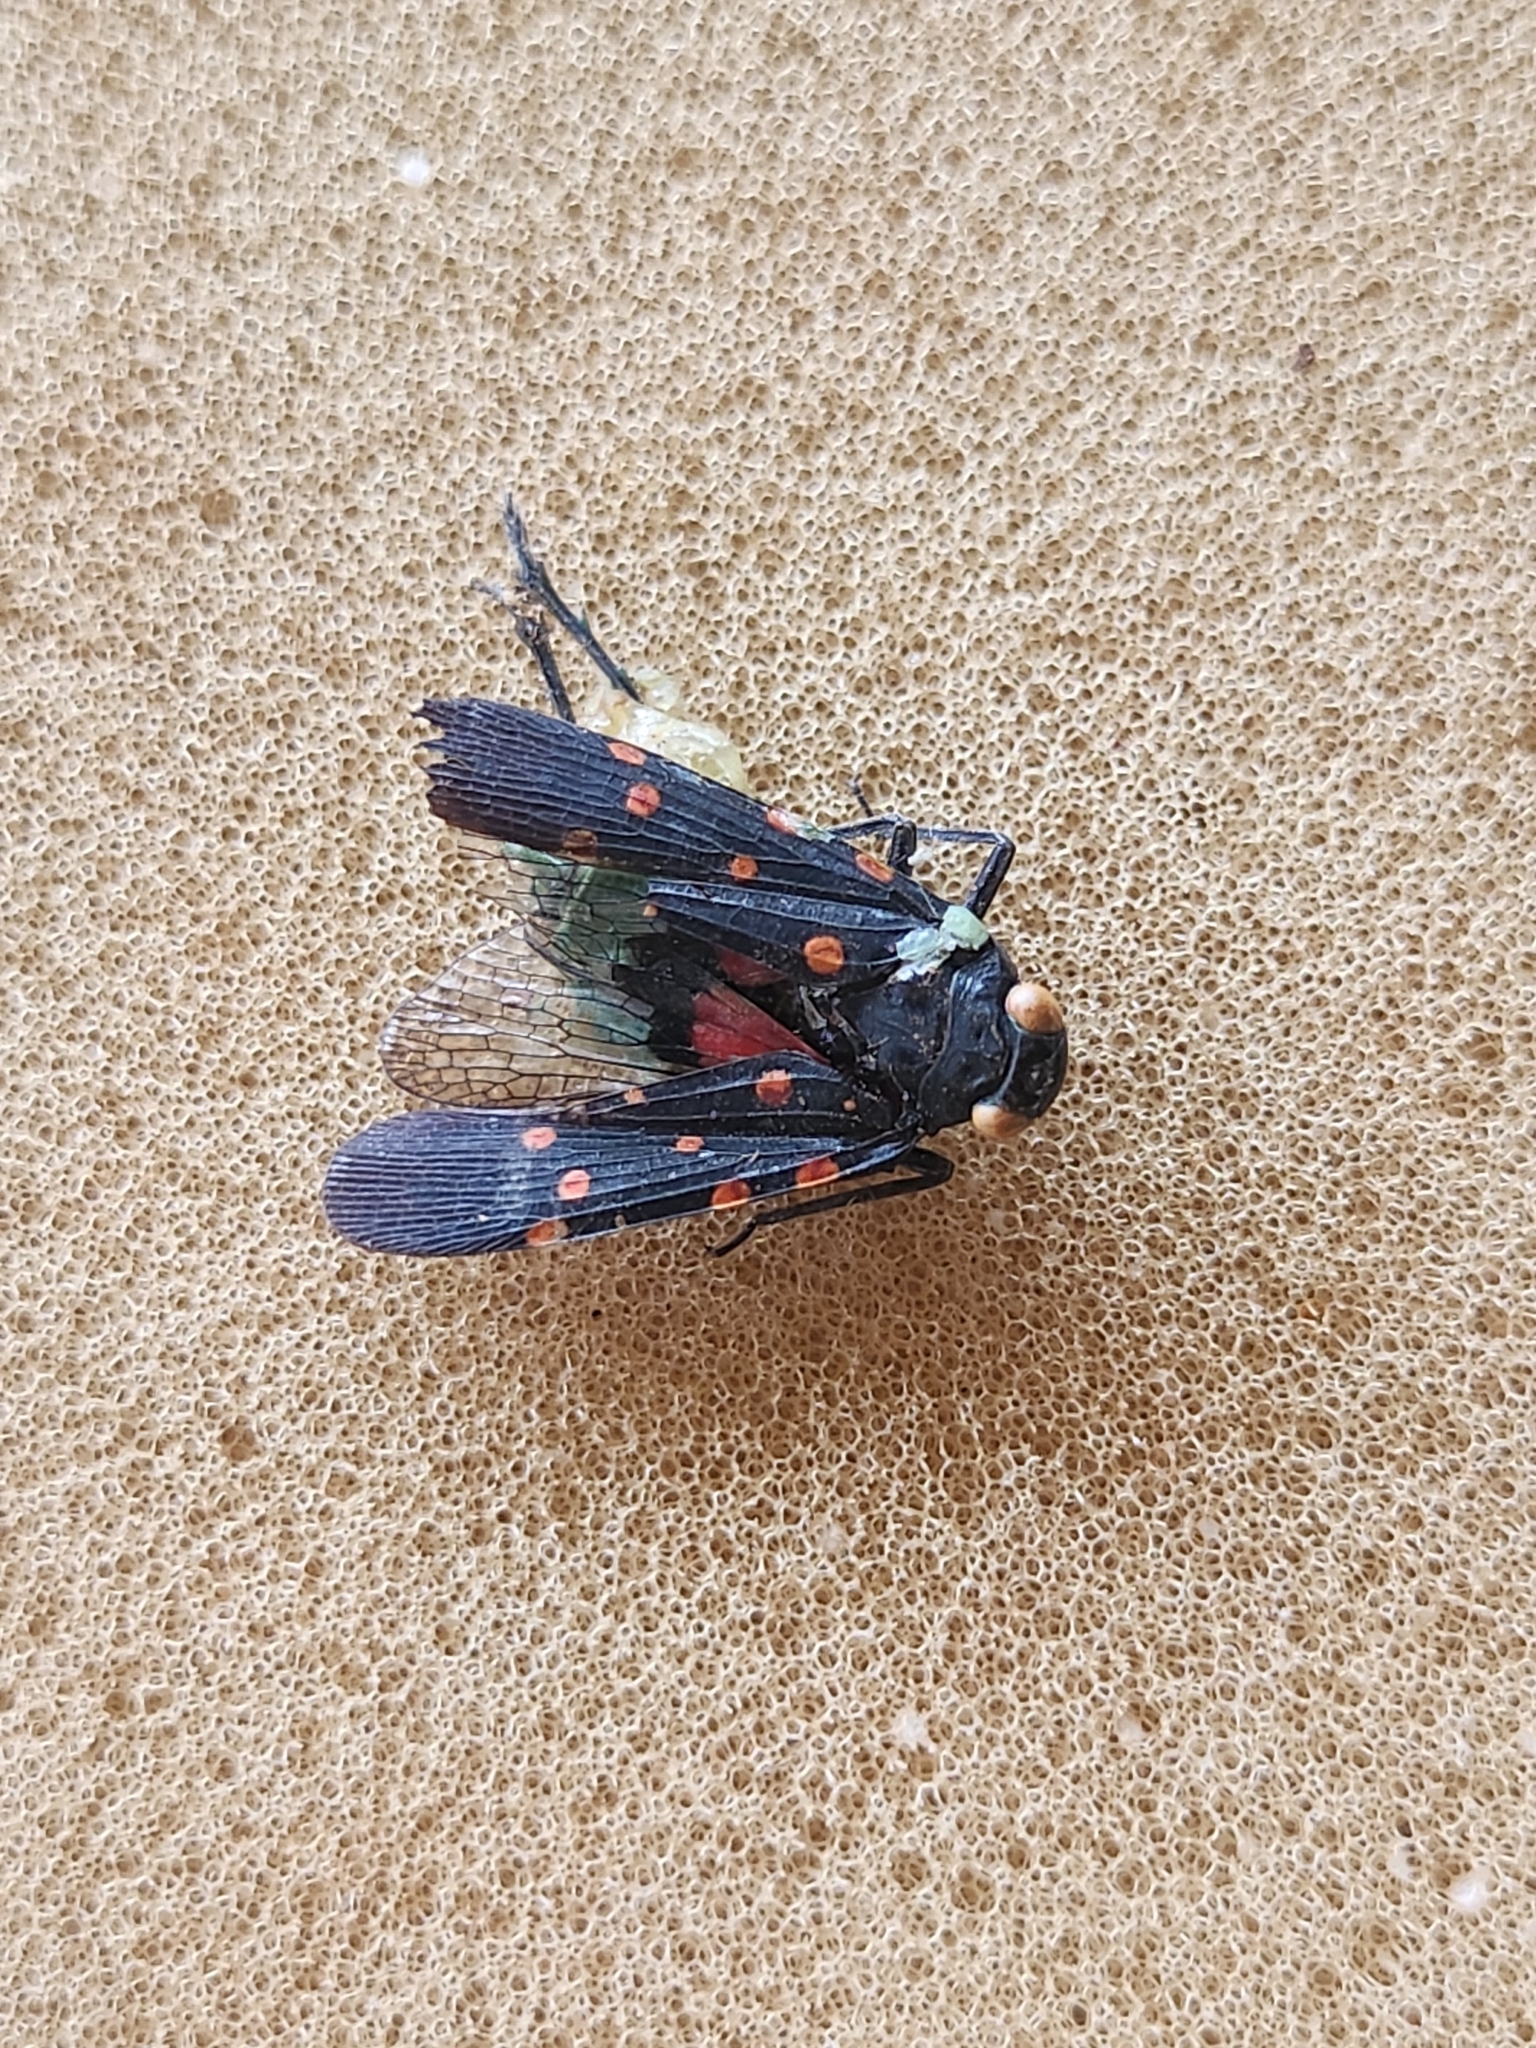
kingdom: Animalia
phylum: Arthropoda
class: Insecta
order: Hemiptera
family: Fulgoridae
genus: Desudaba
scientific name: Desudaba maculata
